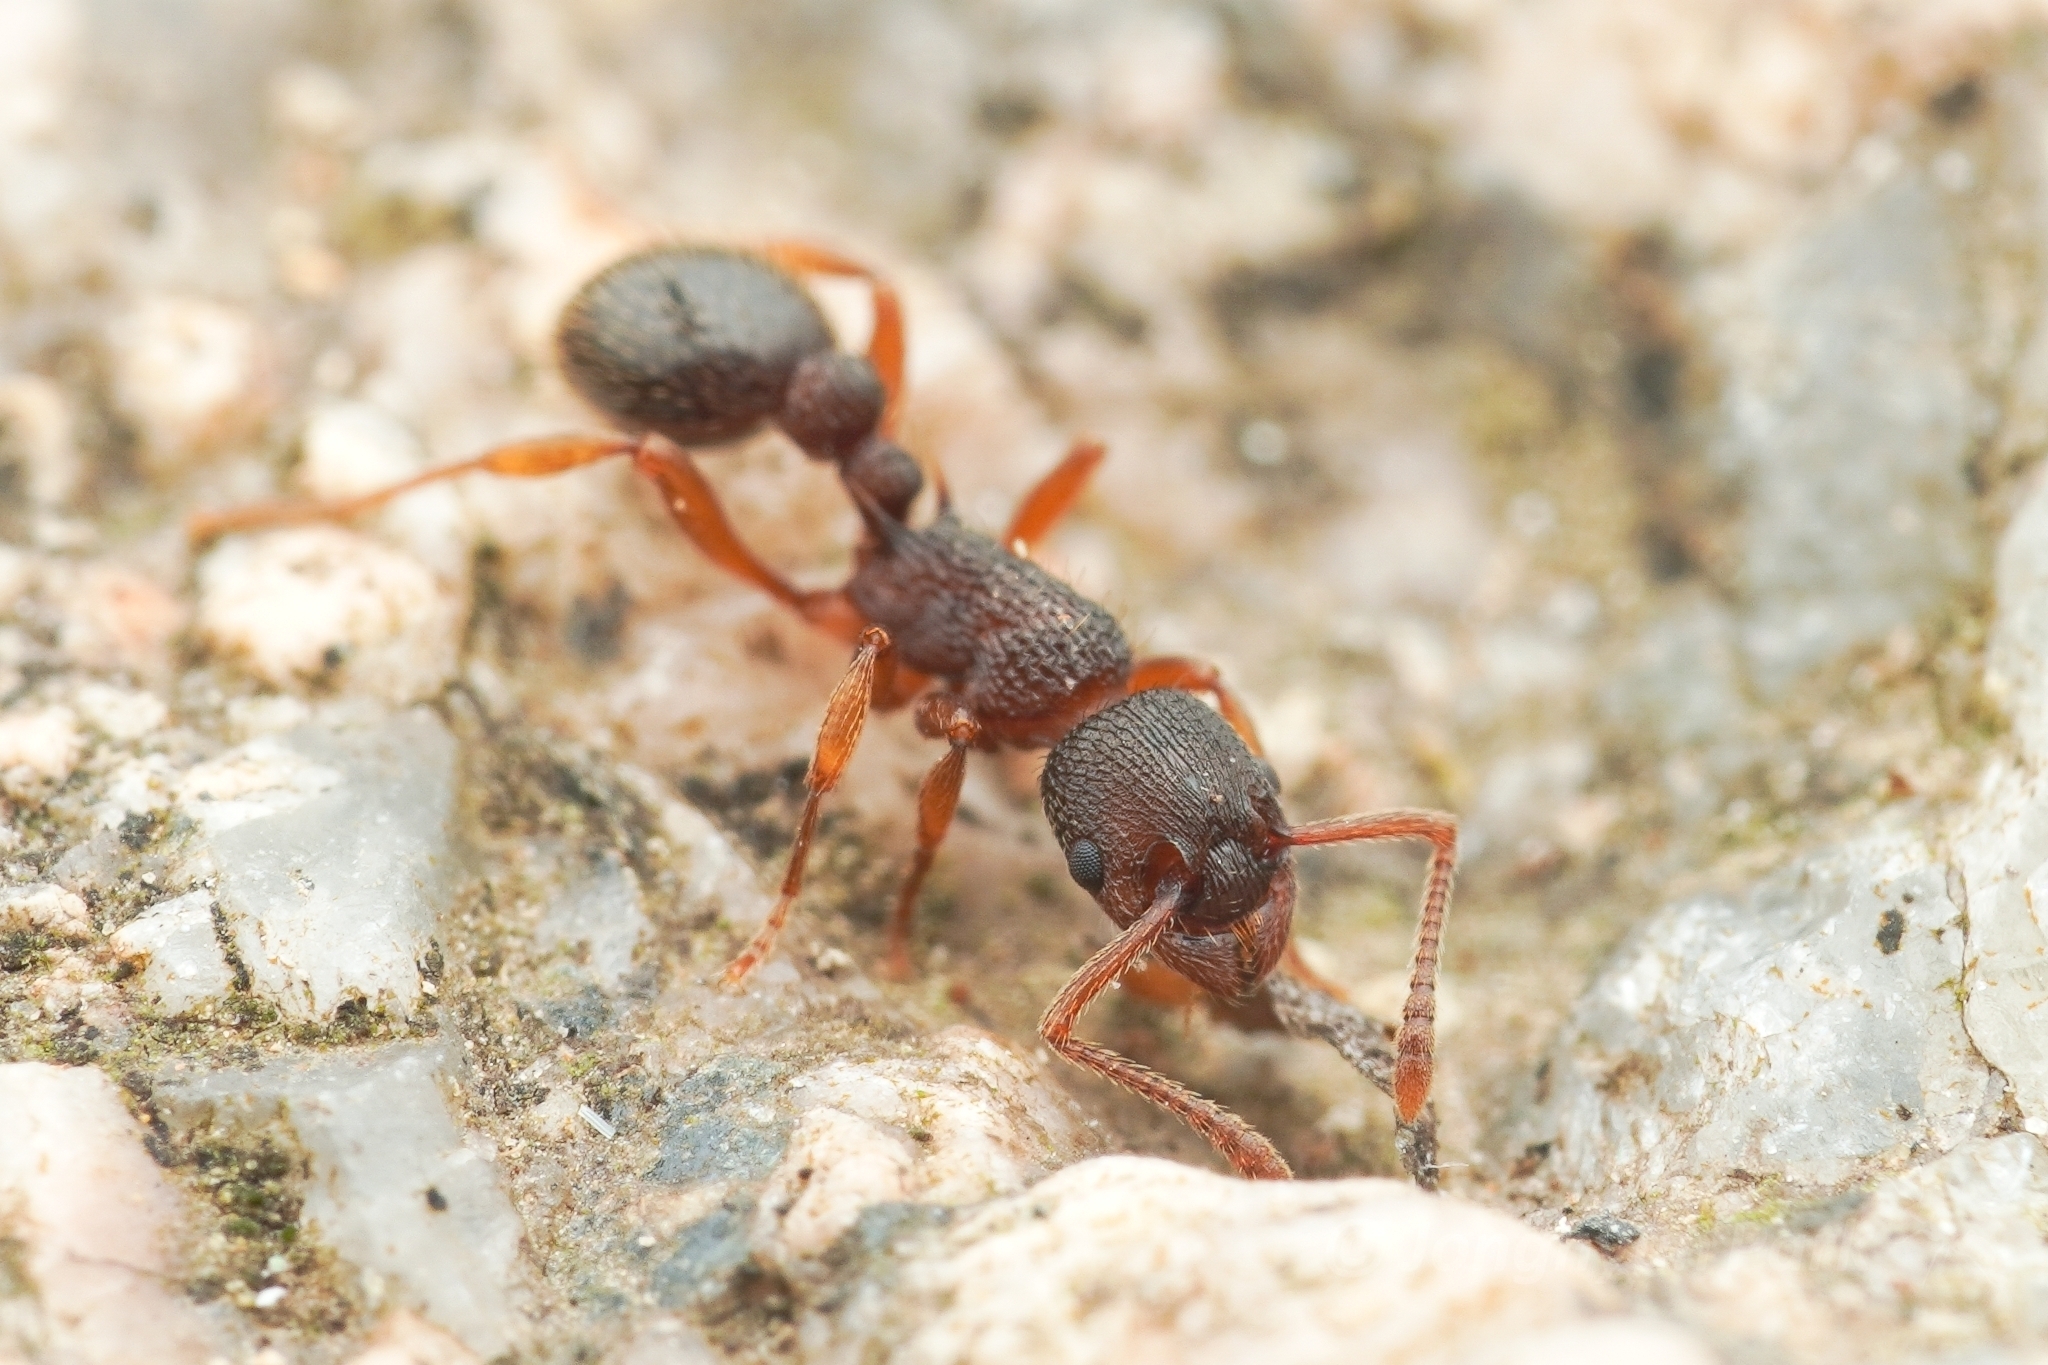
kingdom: Animalia
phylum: Arthropoda
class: Insecta
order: Hymenoptera
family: Formicidae
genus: Myrmica
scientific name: Myrmica excelsa
